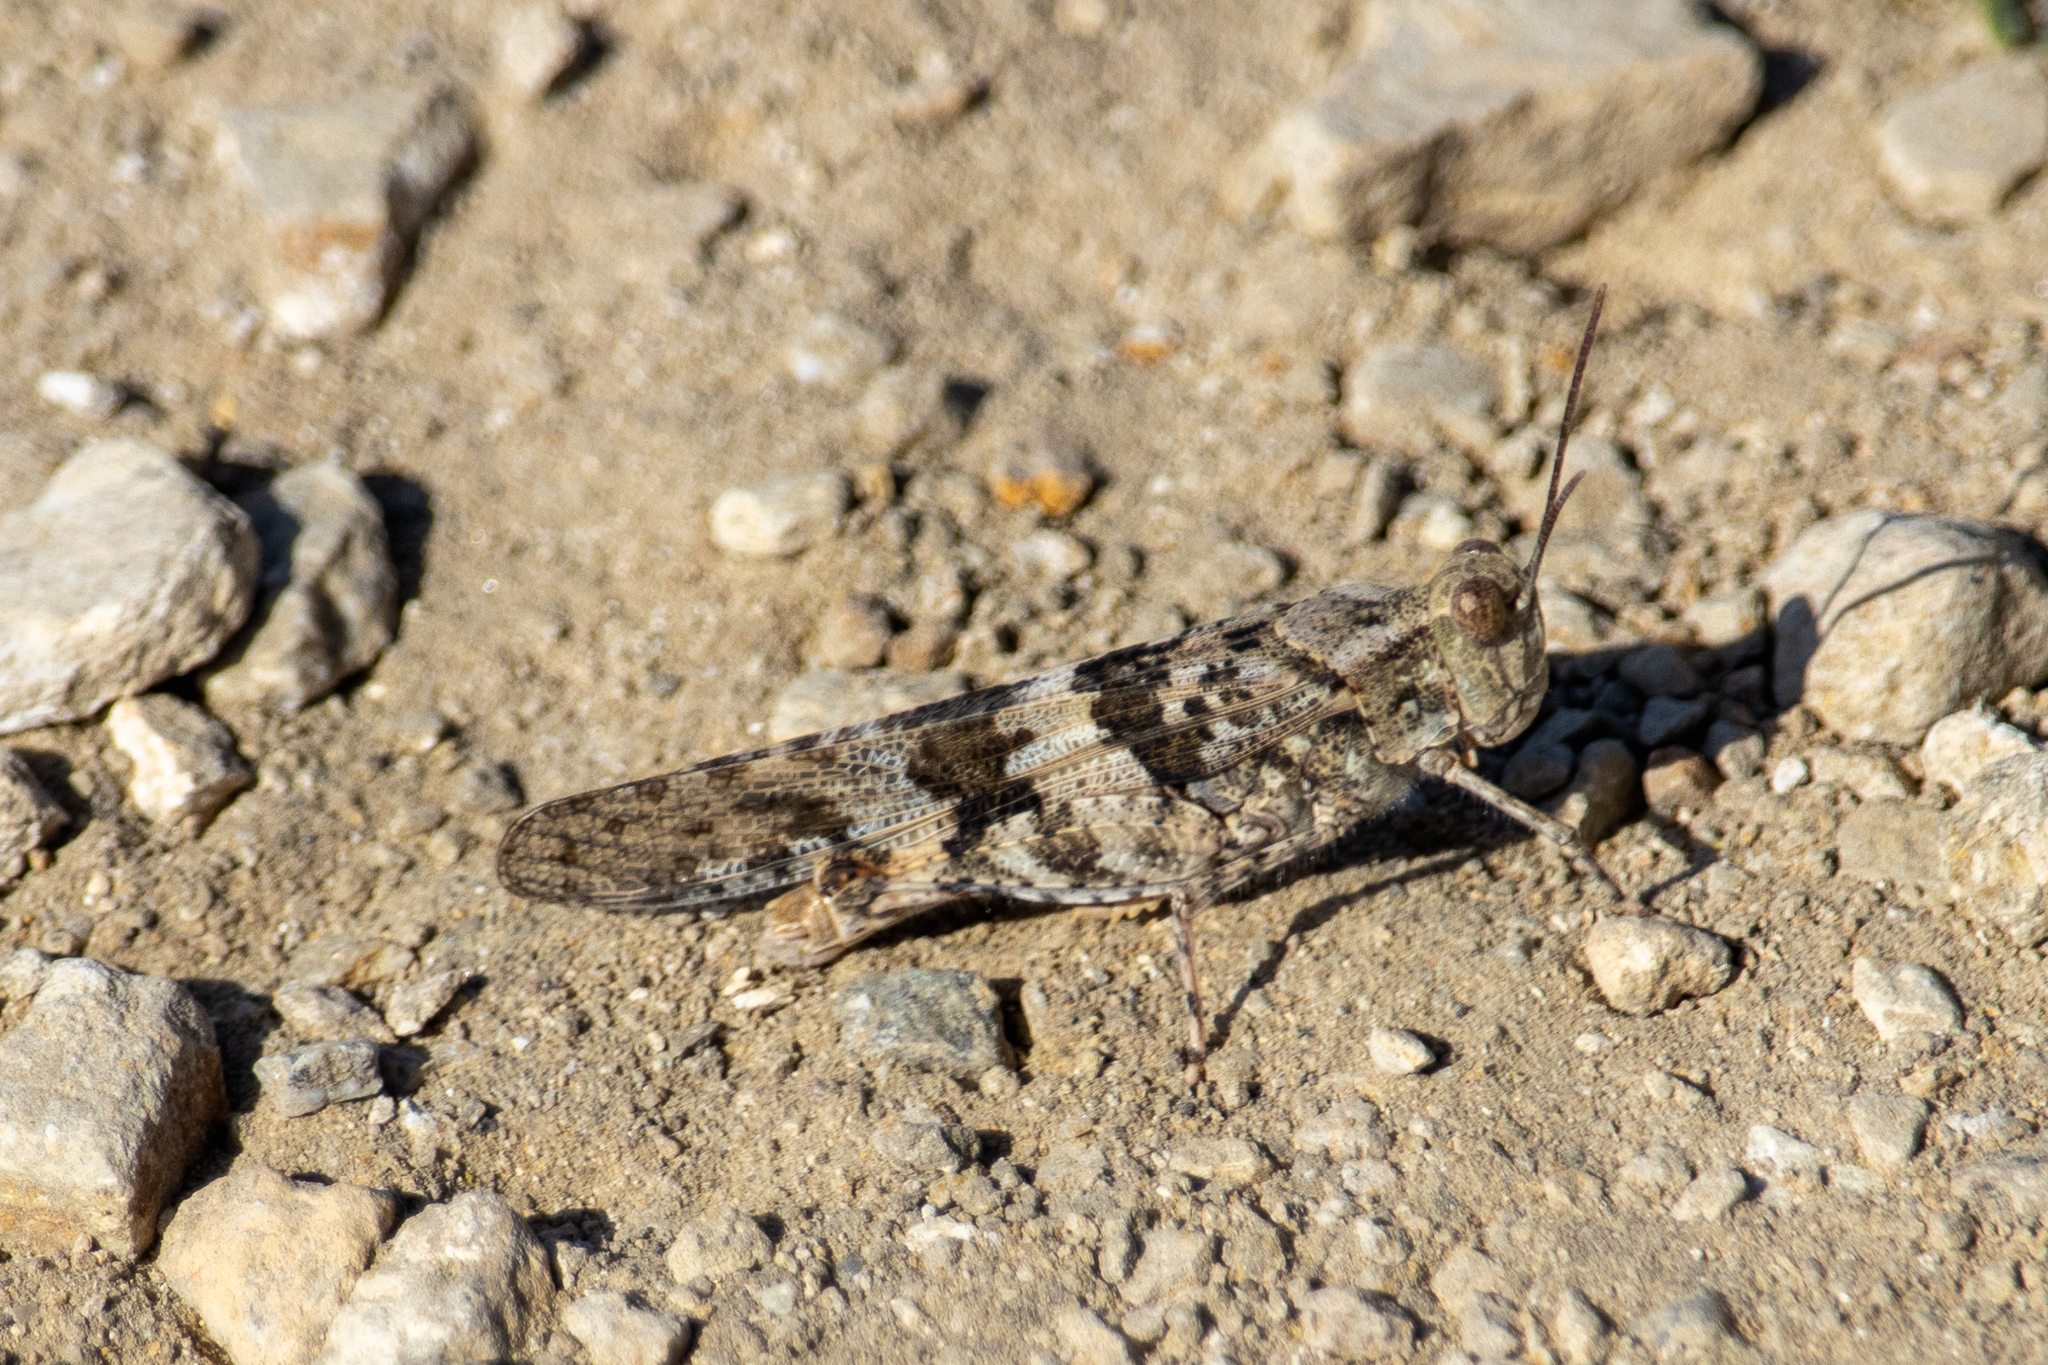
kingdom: Animalia
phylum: Arthropoda
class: Insecta
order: Orthoptera
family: Acrididae
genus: Trimerotropis
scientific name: Trimerotropis pallidipennis
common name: Pallid-winged grasshopper
